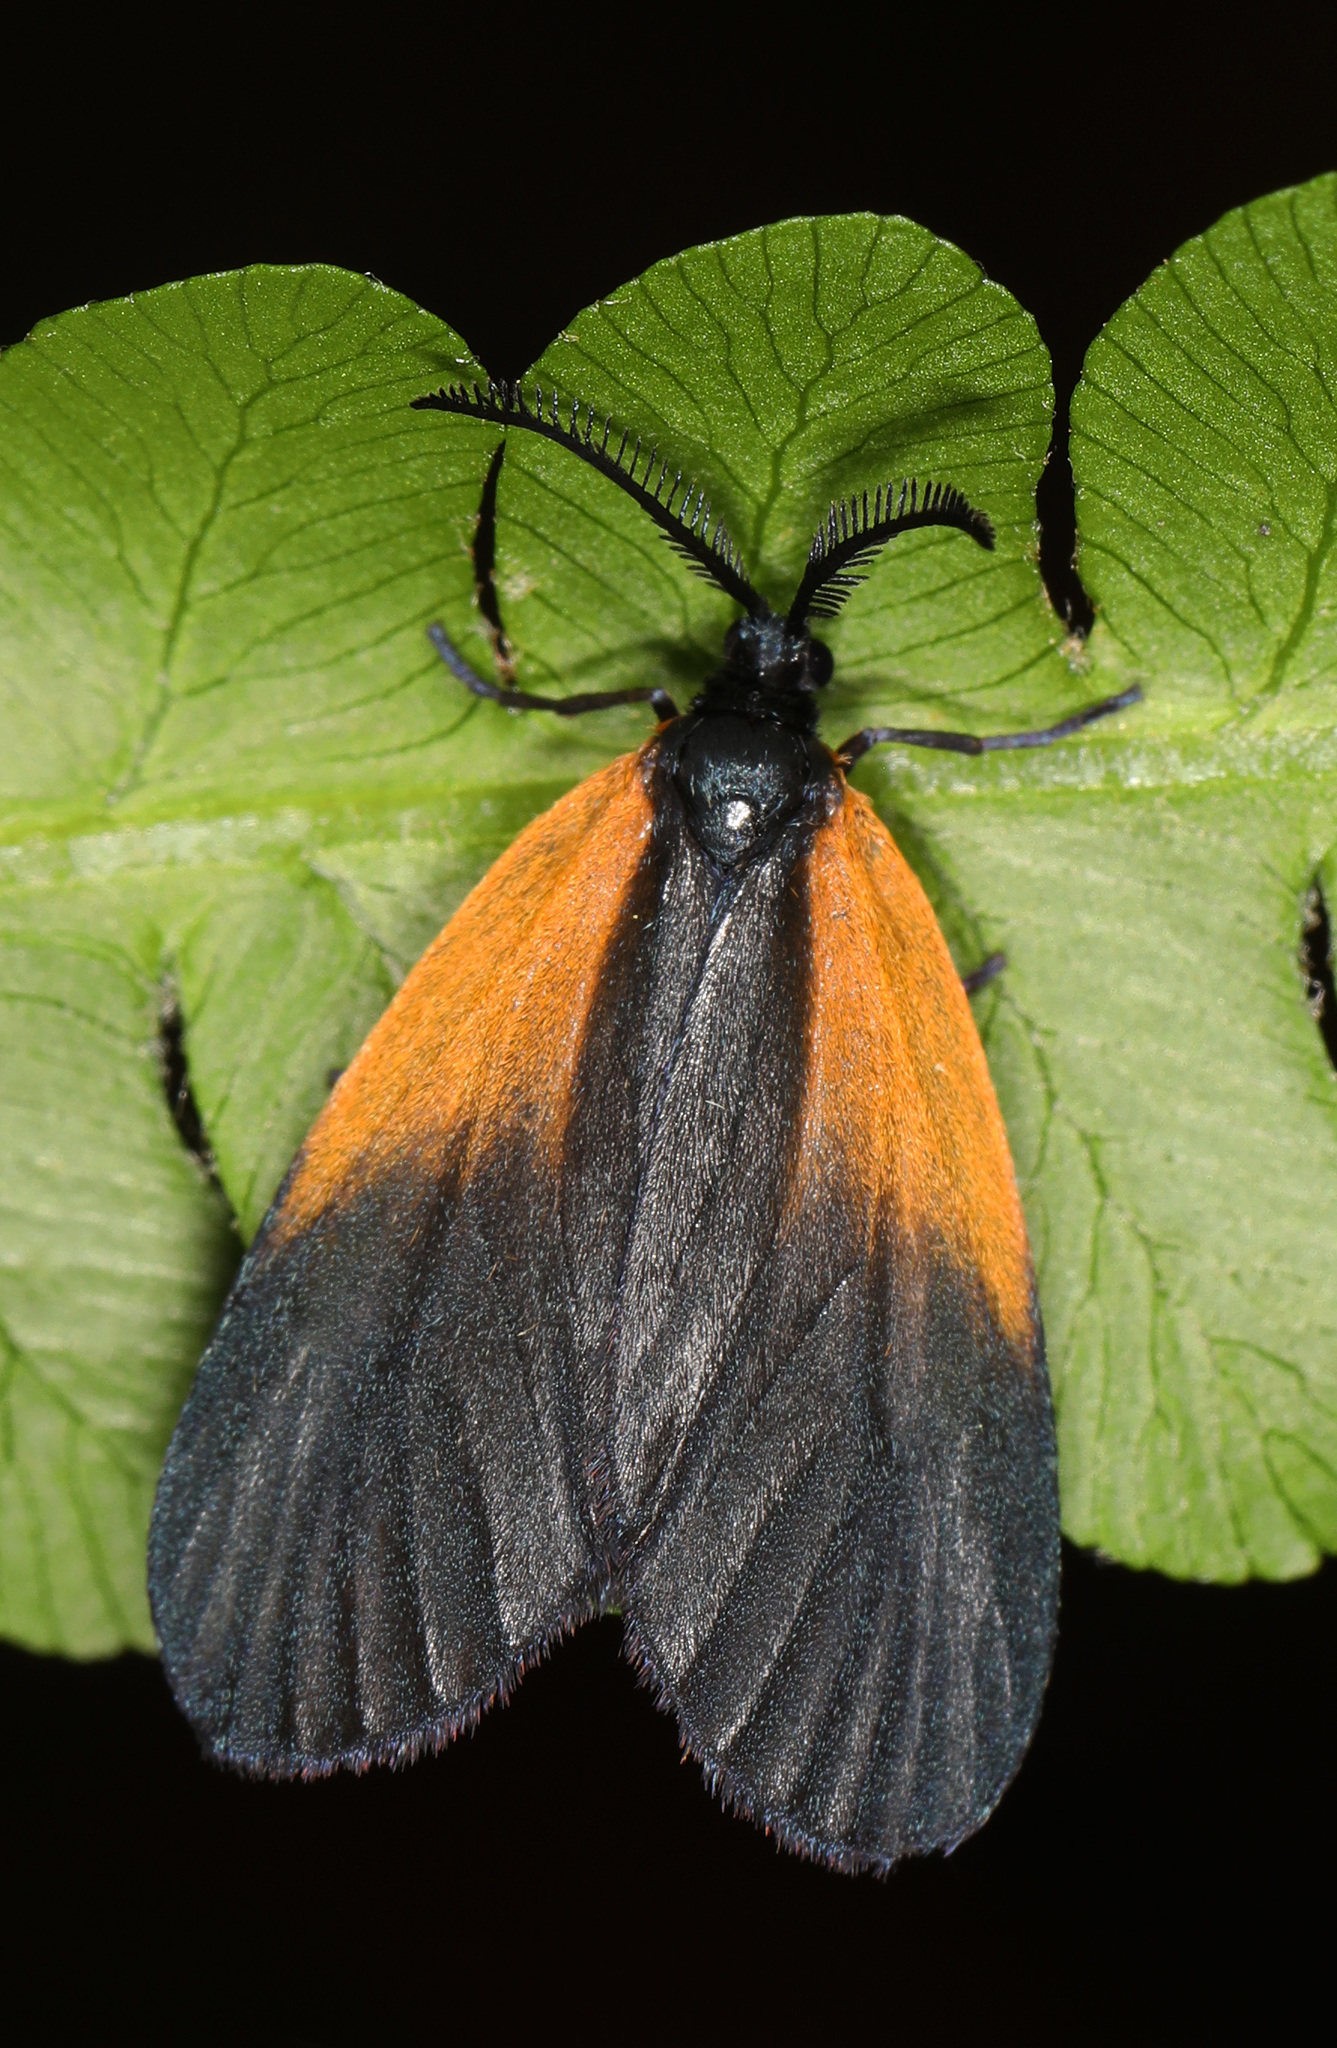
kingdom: Animalia
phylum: Arthropoda
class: Insecta
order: Lepidoptera
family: Zygaenidae
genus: Malthaca
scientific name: Malthaca dimidiata
